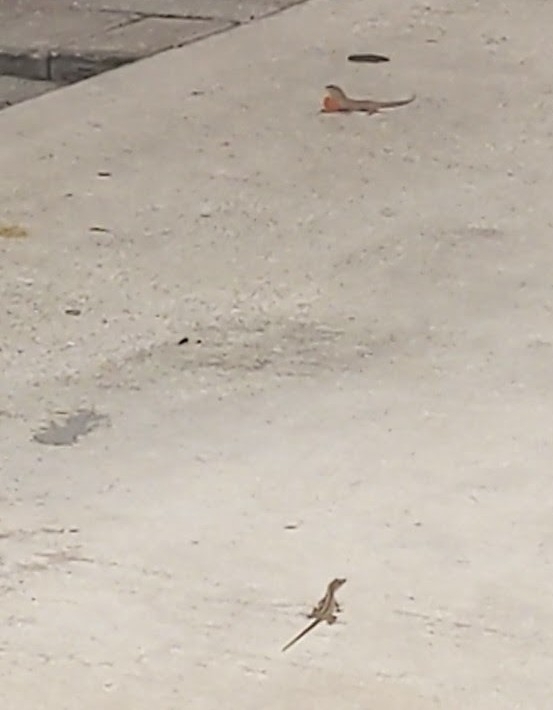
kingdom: Animalia
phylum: Chordata
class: Squamata
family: Dactyloidae
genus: Anolis
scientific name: Anolis sagrei
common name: Brown anole
